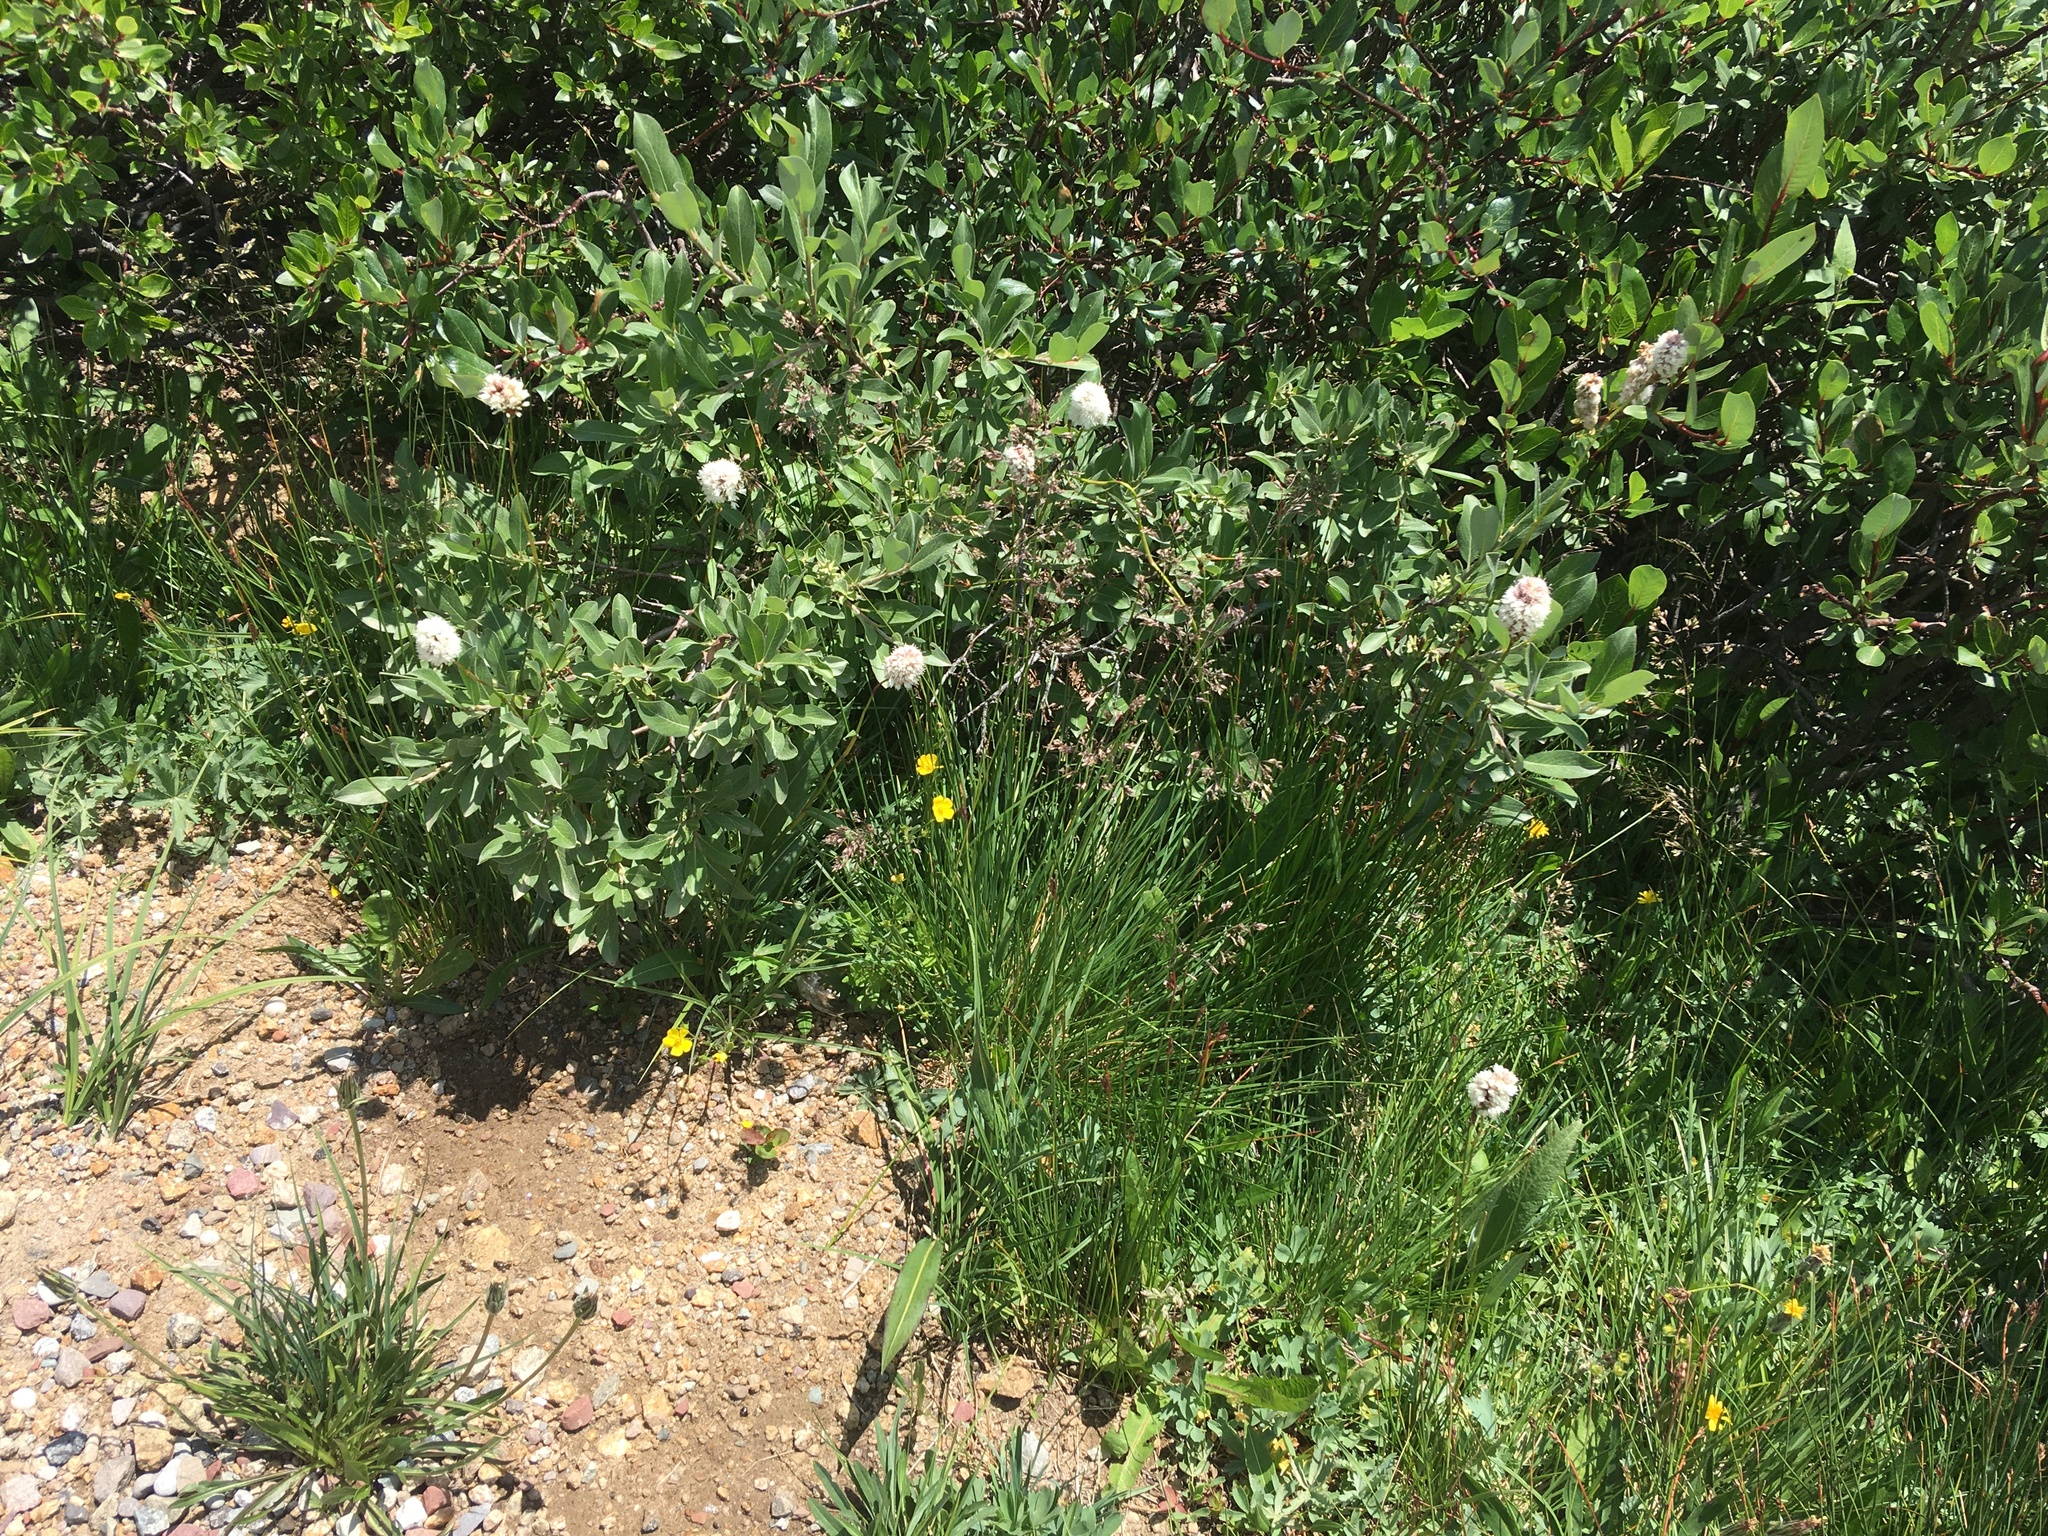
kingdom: Plantae
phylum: Tracheophyta
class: Magnoliopsida
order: Caryophyllales
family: Polygonaceae
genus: Bistorta
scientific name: Bistorta bistortoides
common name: American bistort
